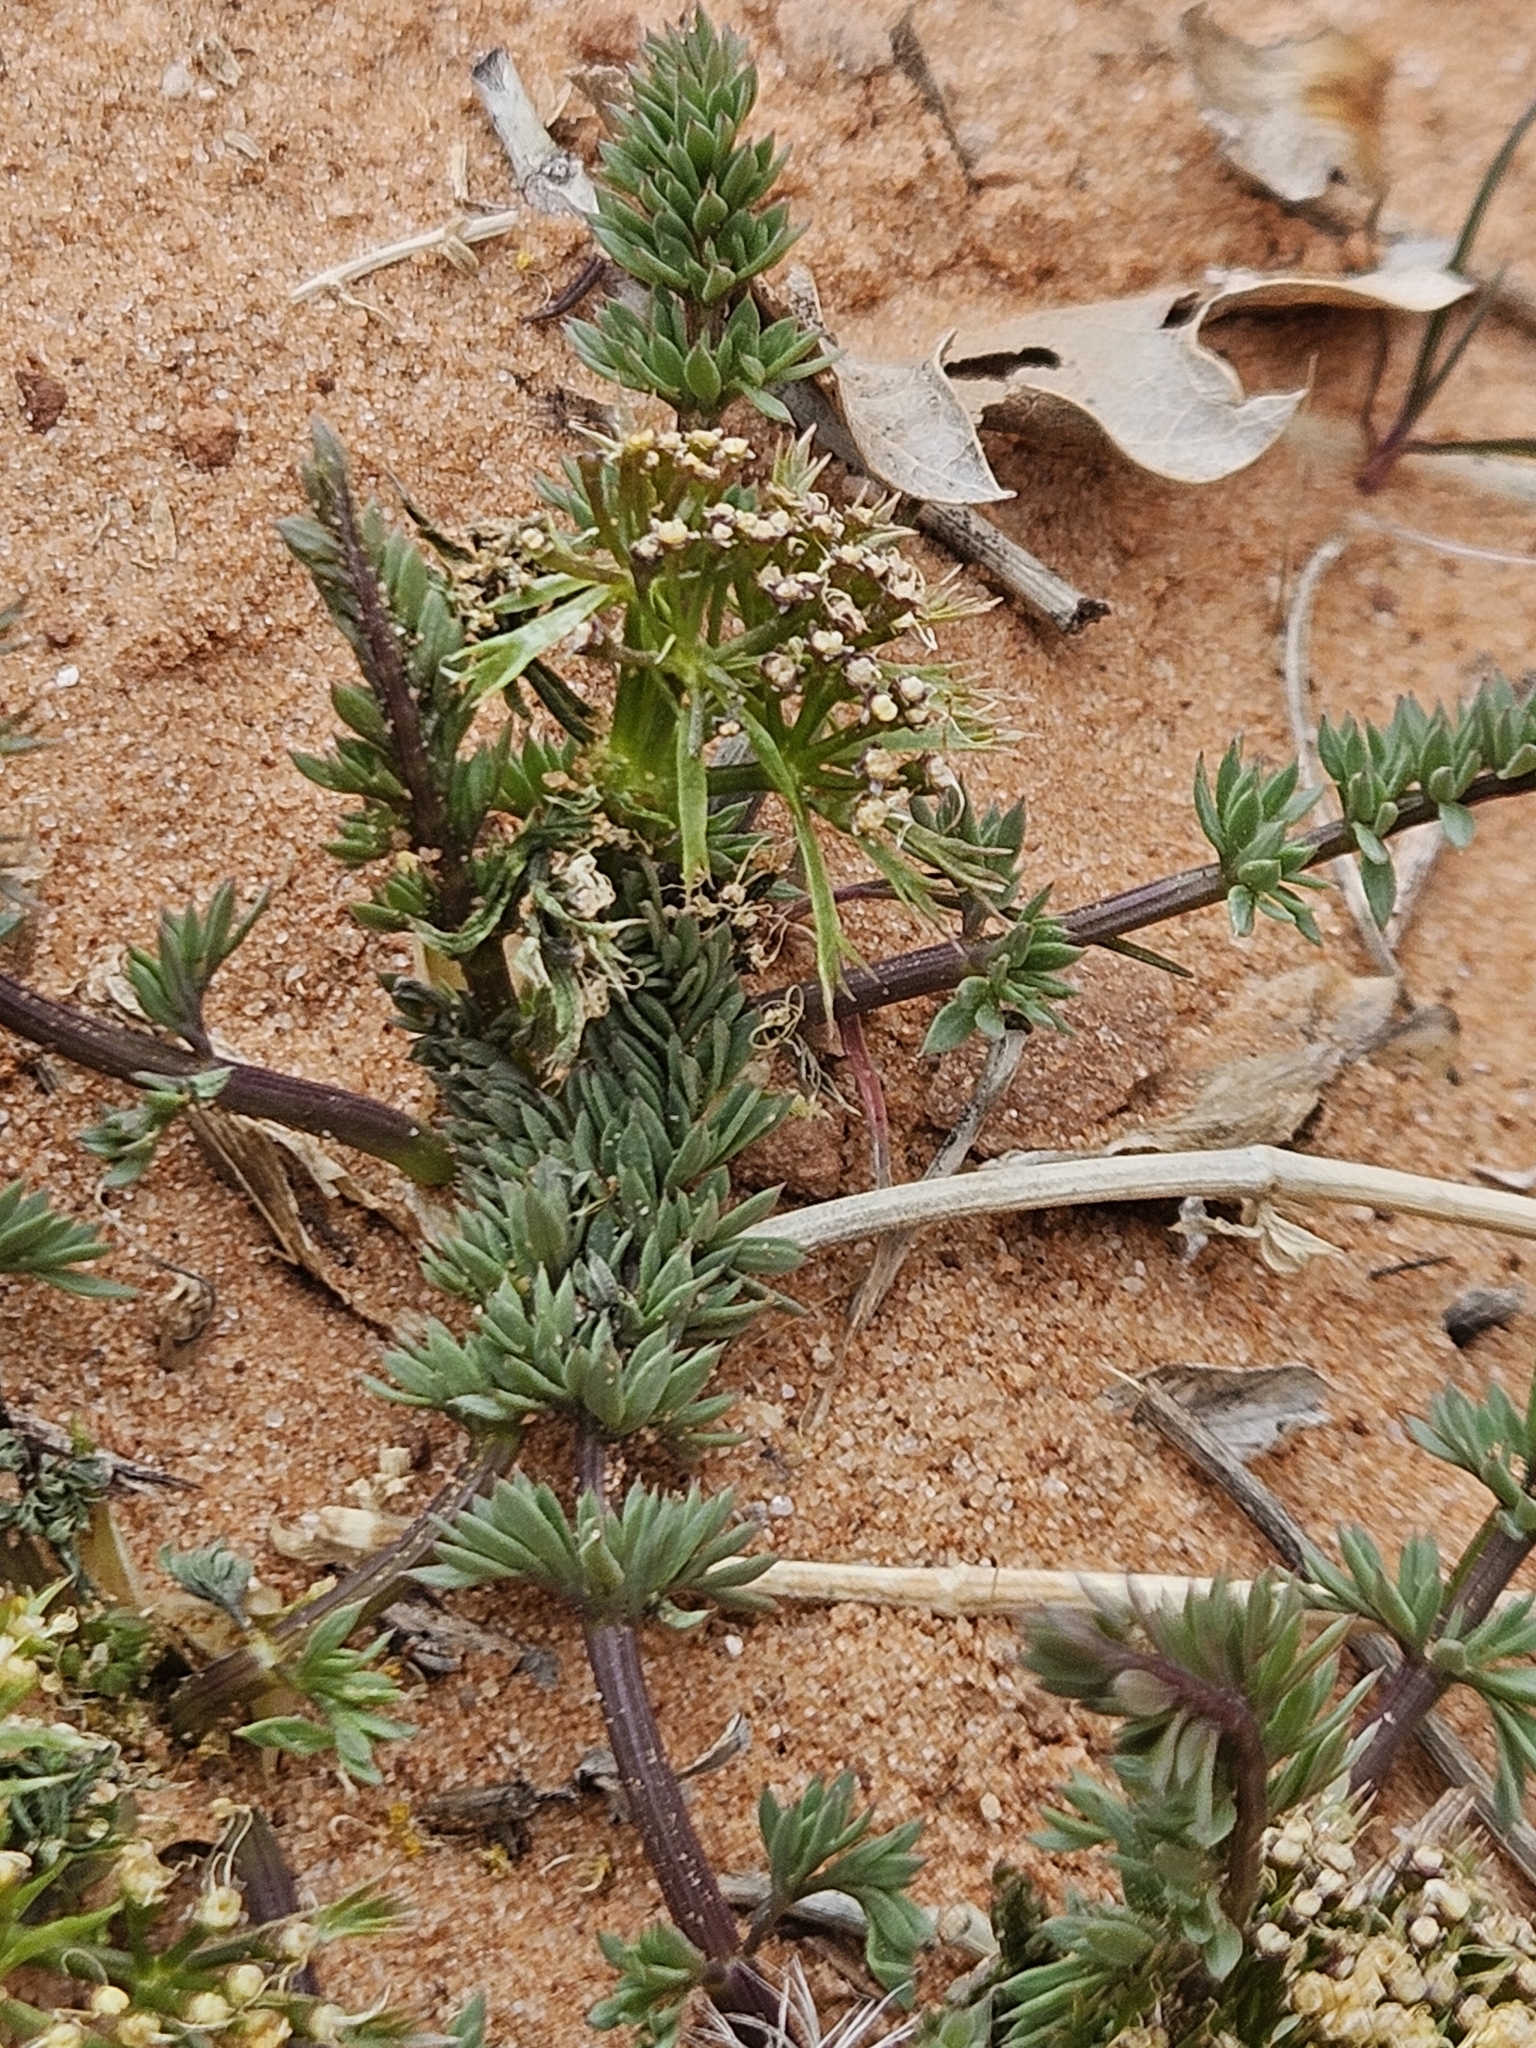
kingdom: Plantae
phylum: Tracheophyta
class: Magnoliopsida
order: Apiales
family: Apiaceae
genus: Lomatium
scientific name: Lomatium parryi
